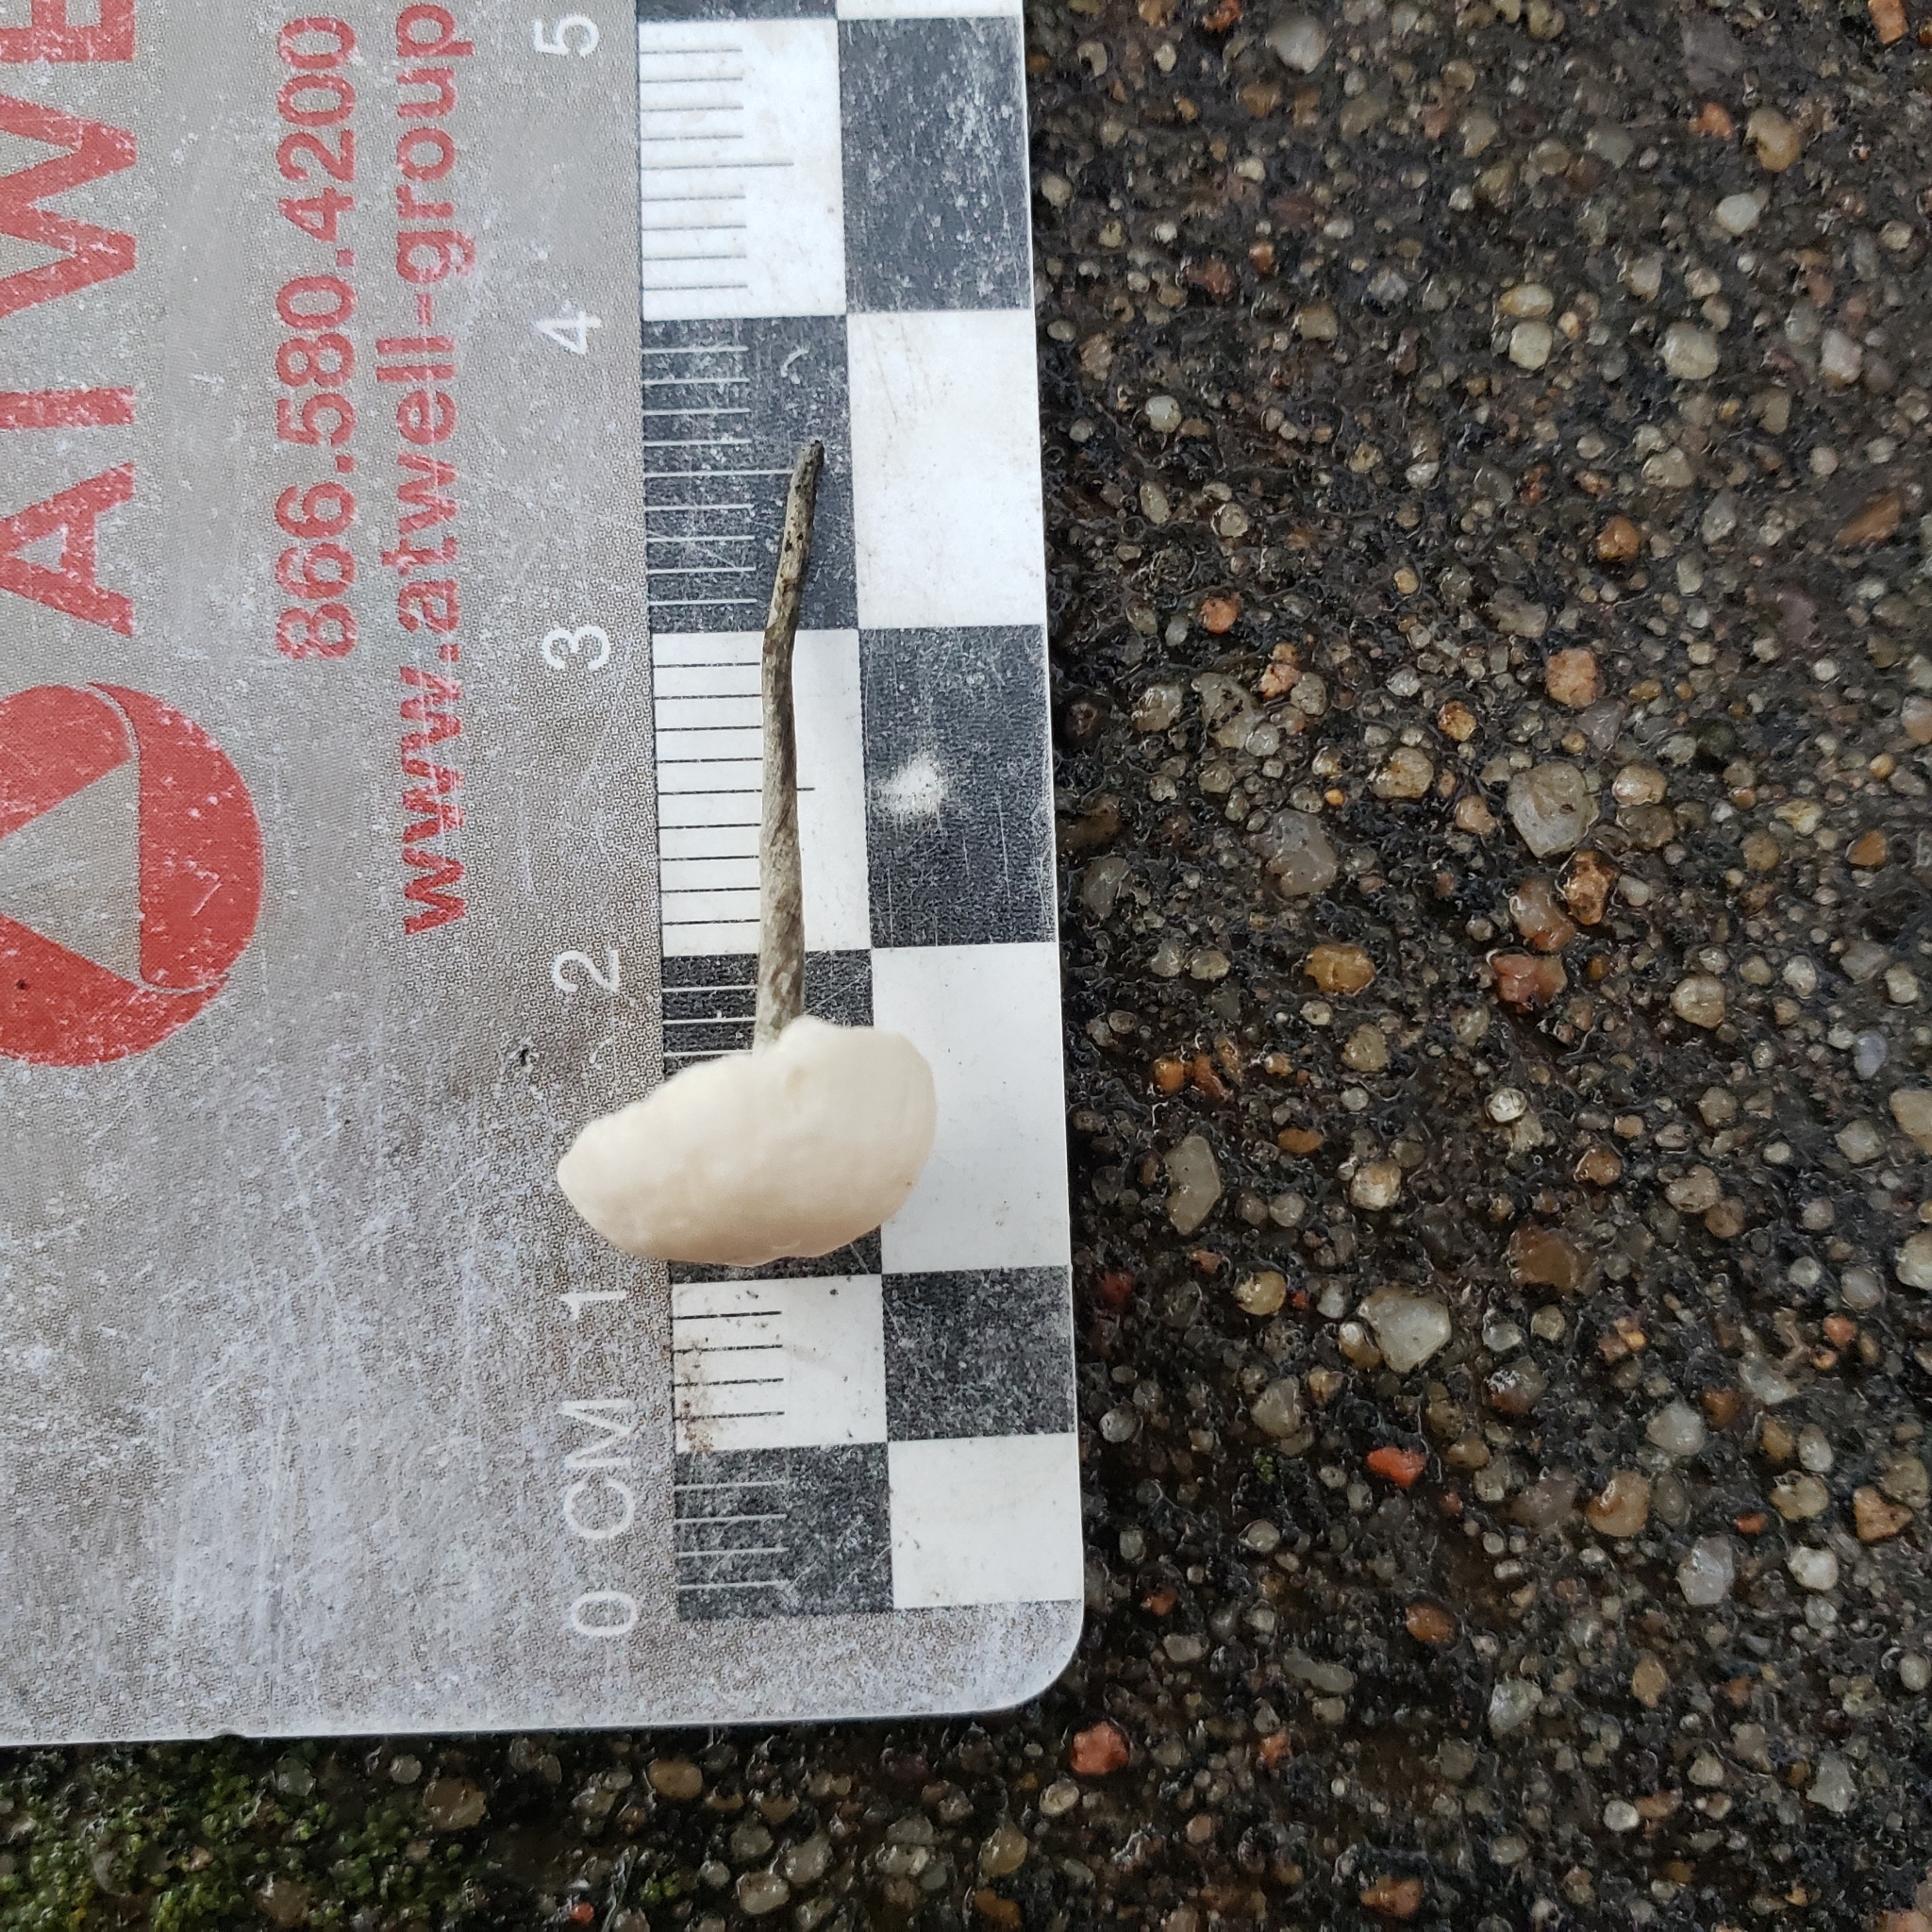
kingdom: Fungi
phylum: Basidiomycota
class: Agaricomycetes
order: Agaricales
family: Marasmiaceae
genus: Tetrapyrgos
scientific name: Tetrapyrgos nigripes
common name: Black-stalked marasmius
